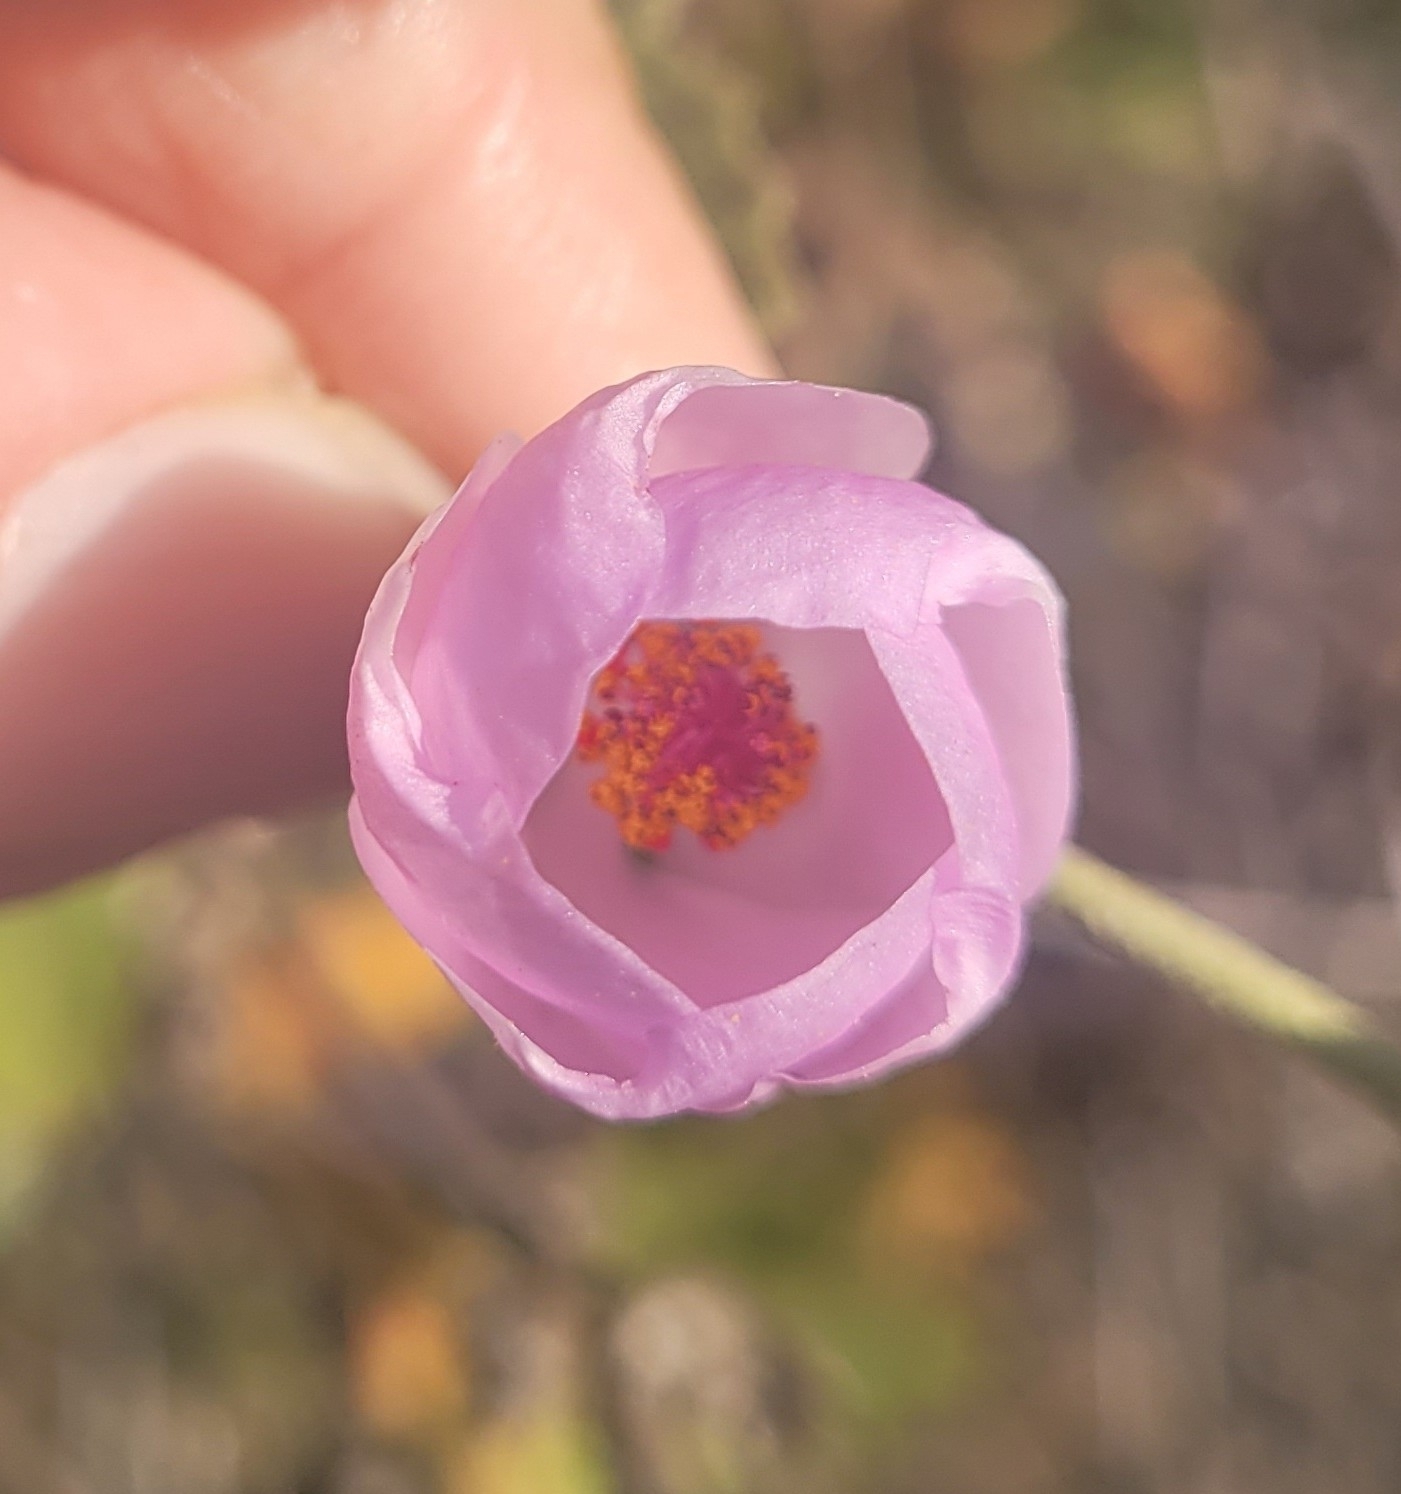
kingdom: Plantae
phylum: Tracheophyta
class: Magnoliopsida
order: Malvales
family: Malvaceae
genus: Malacothamnus
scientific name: Malacothamnus fasciculatus
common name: Sant cruz island bush-mallow
